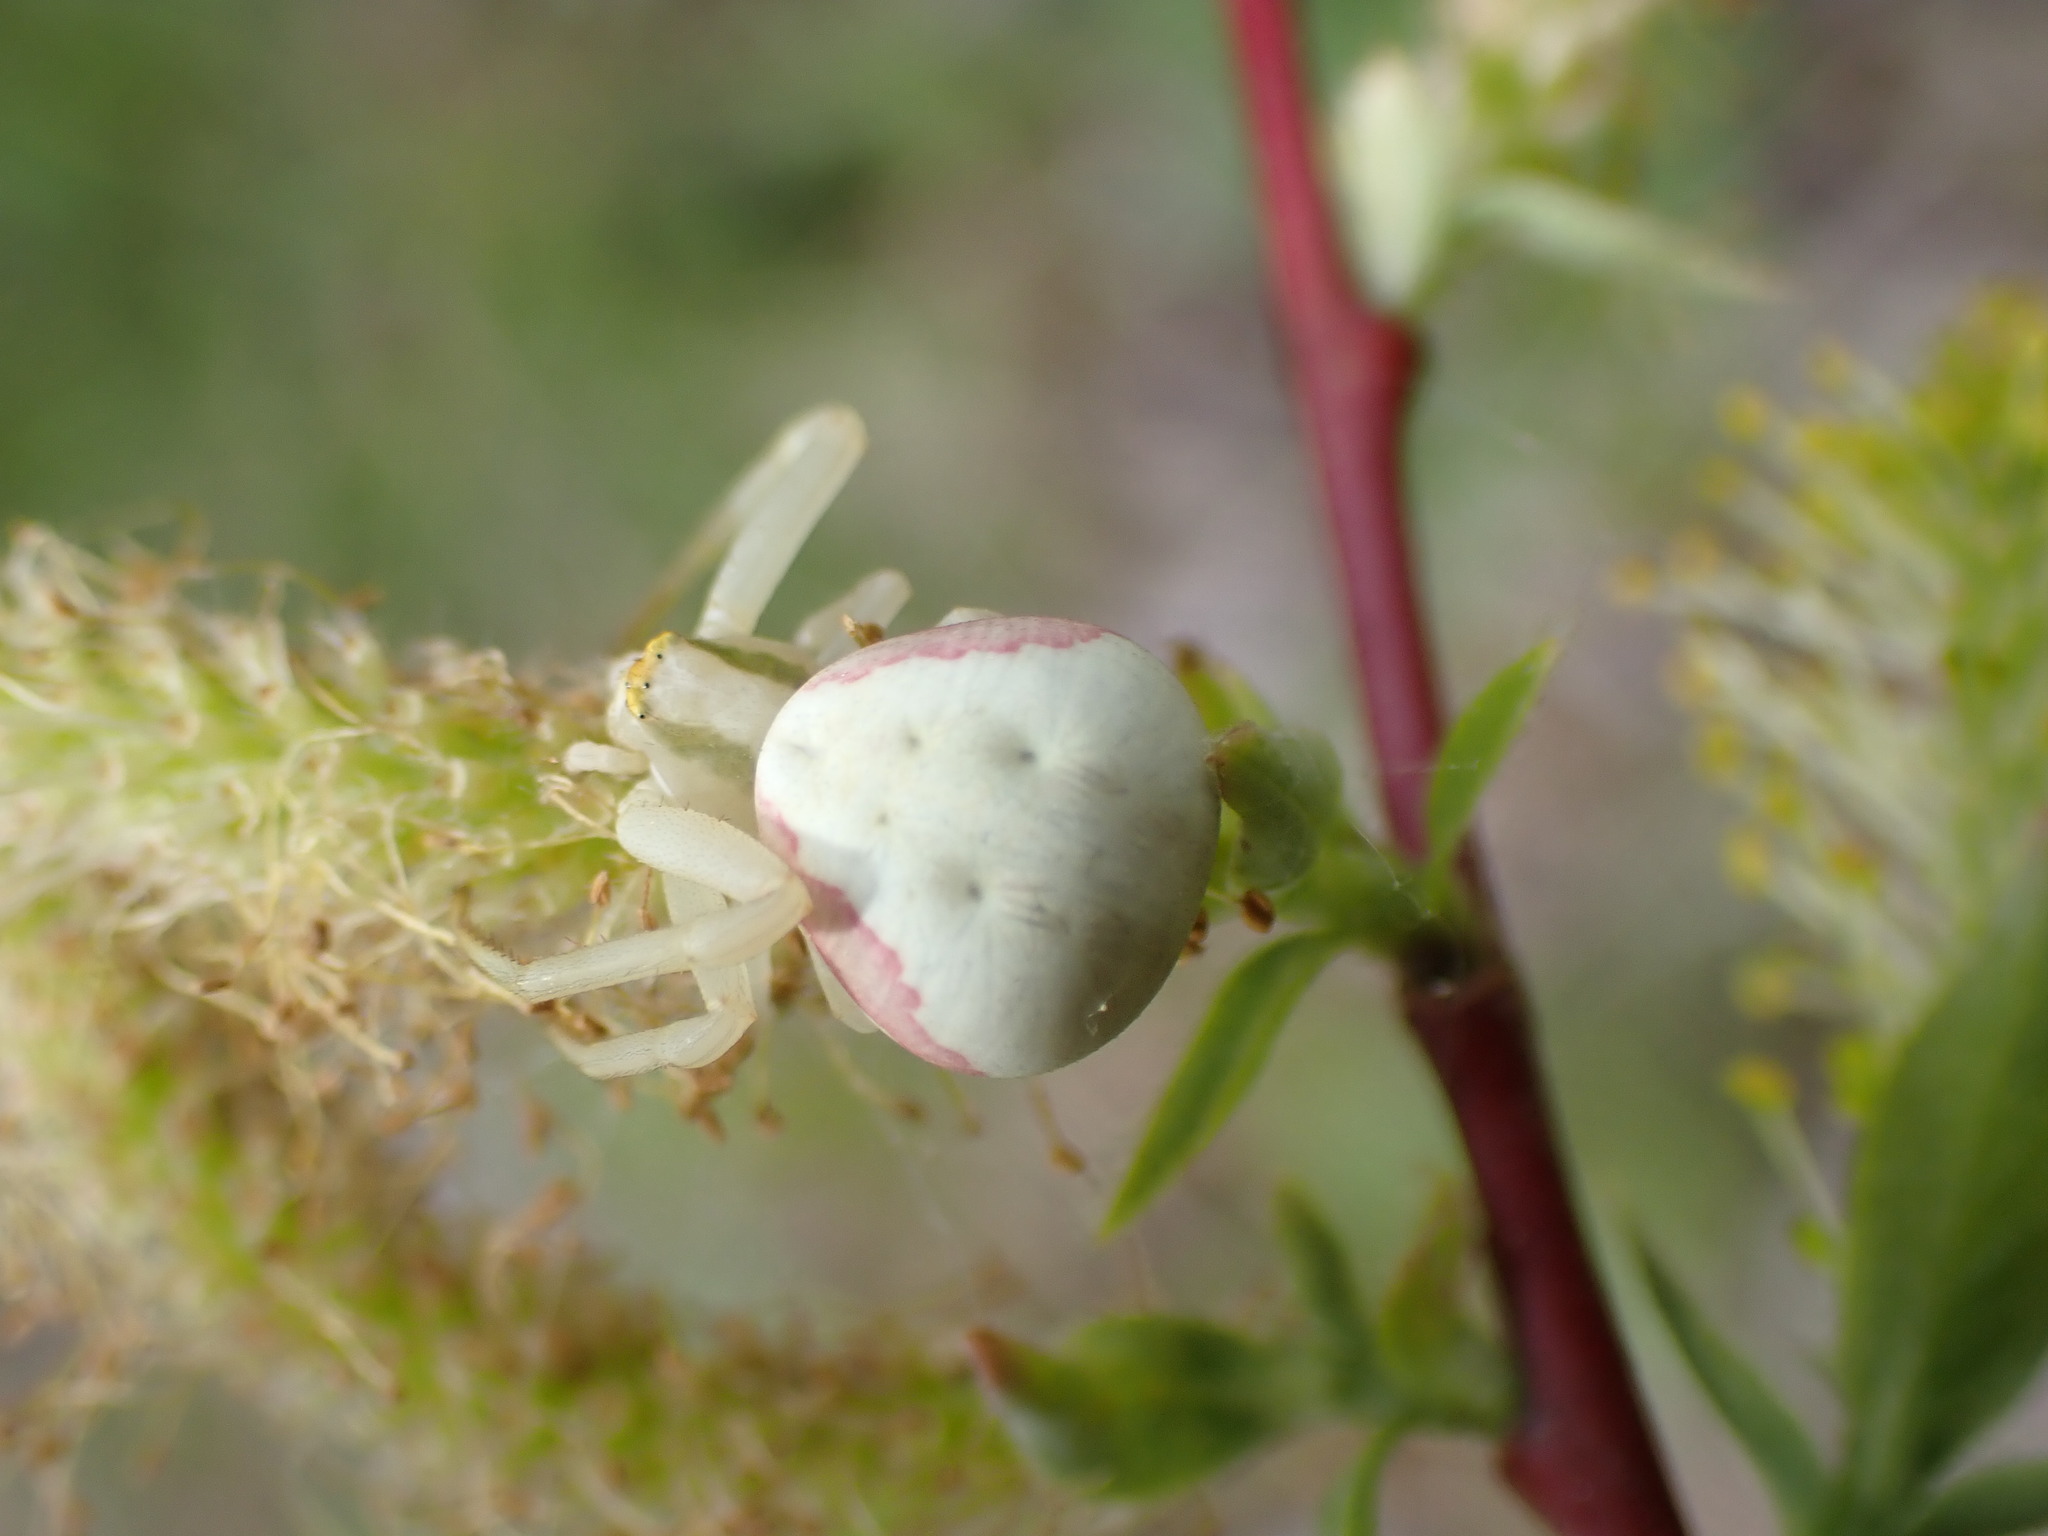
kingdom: Animalia
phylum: Arthropoda
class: Arachnida
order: Araneae
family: Thomisidae
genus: Misumena
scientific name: Misumena vatia
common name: Goldenrod crab spider
